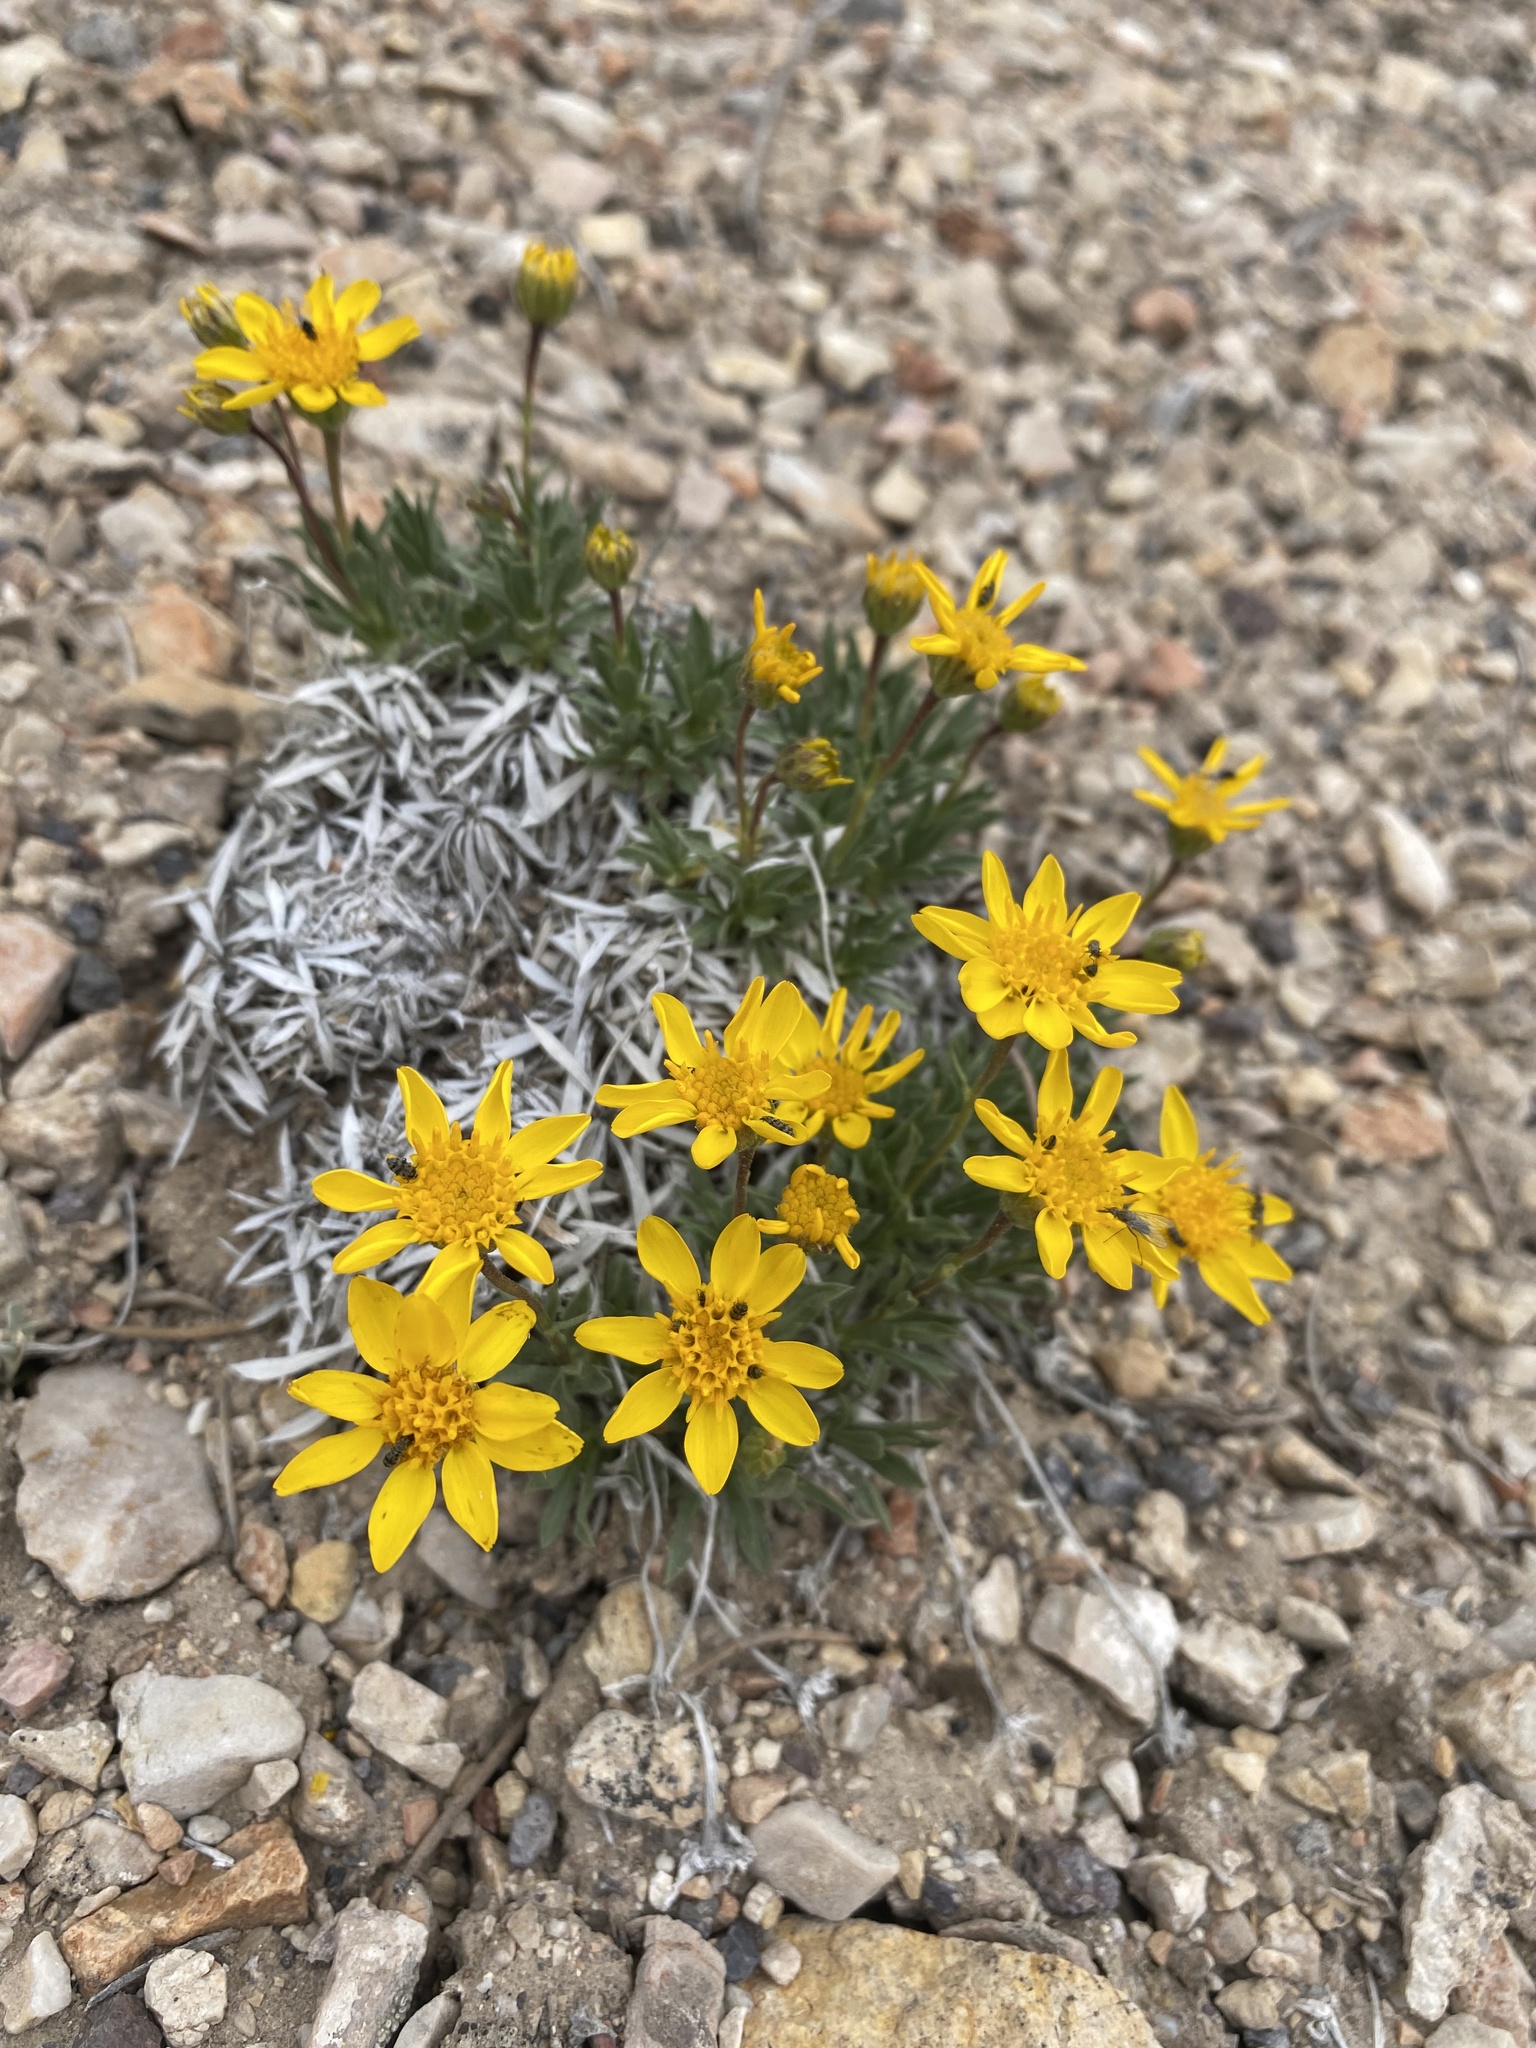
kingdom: Plantae
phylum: Tracheophyta
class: Magnoliopsida
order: Asterales
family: Asteraceae
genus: Stenotus
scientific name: Stenotus acaulis
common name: Stemless goldenweed
